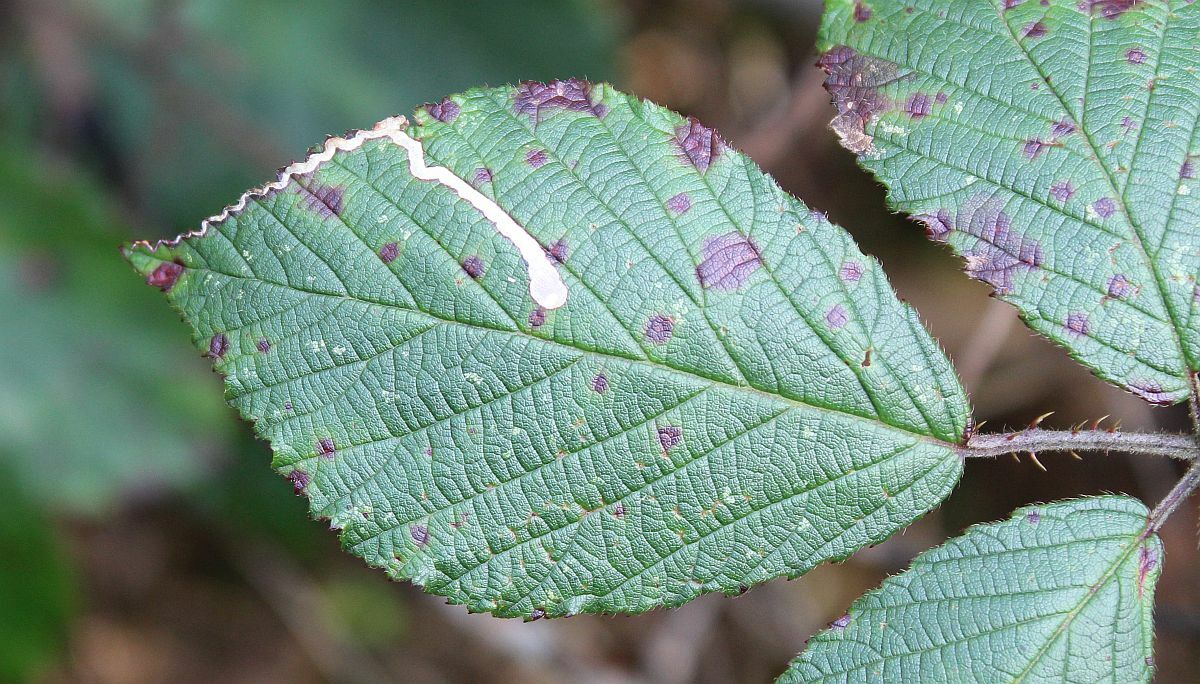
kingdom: Animalia
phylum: Arthropoda
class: Insecta
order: Lepidoptera
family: Nepticulidae
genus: Stigmella
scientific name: Stigmella aurella
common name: Golden pigmy
